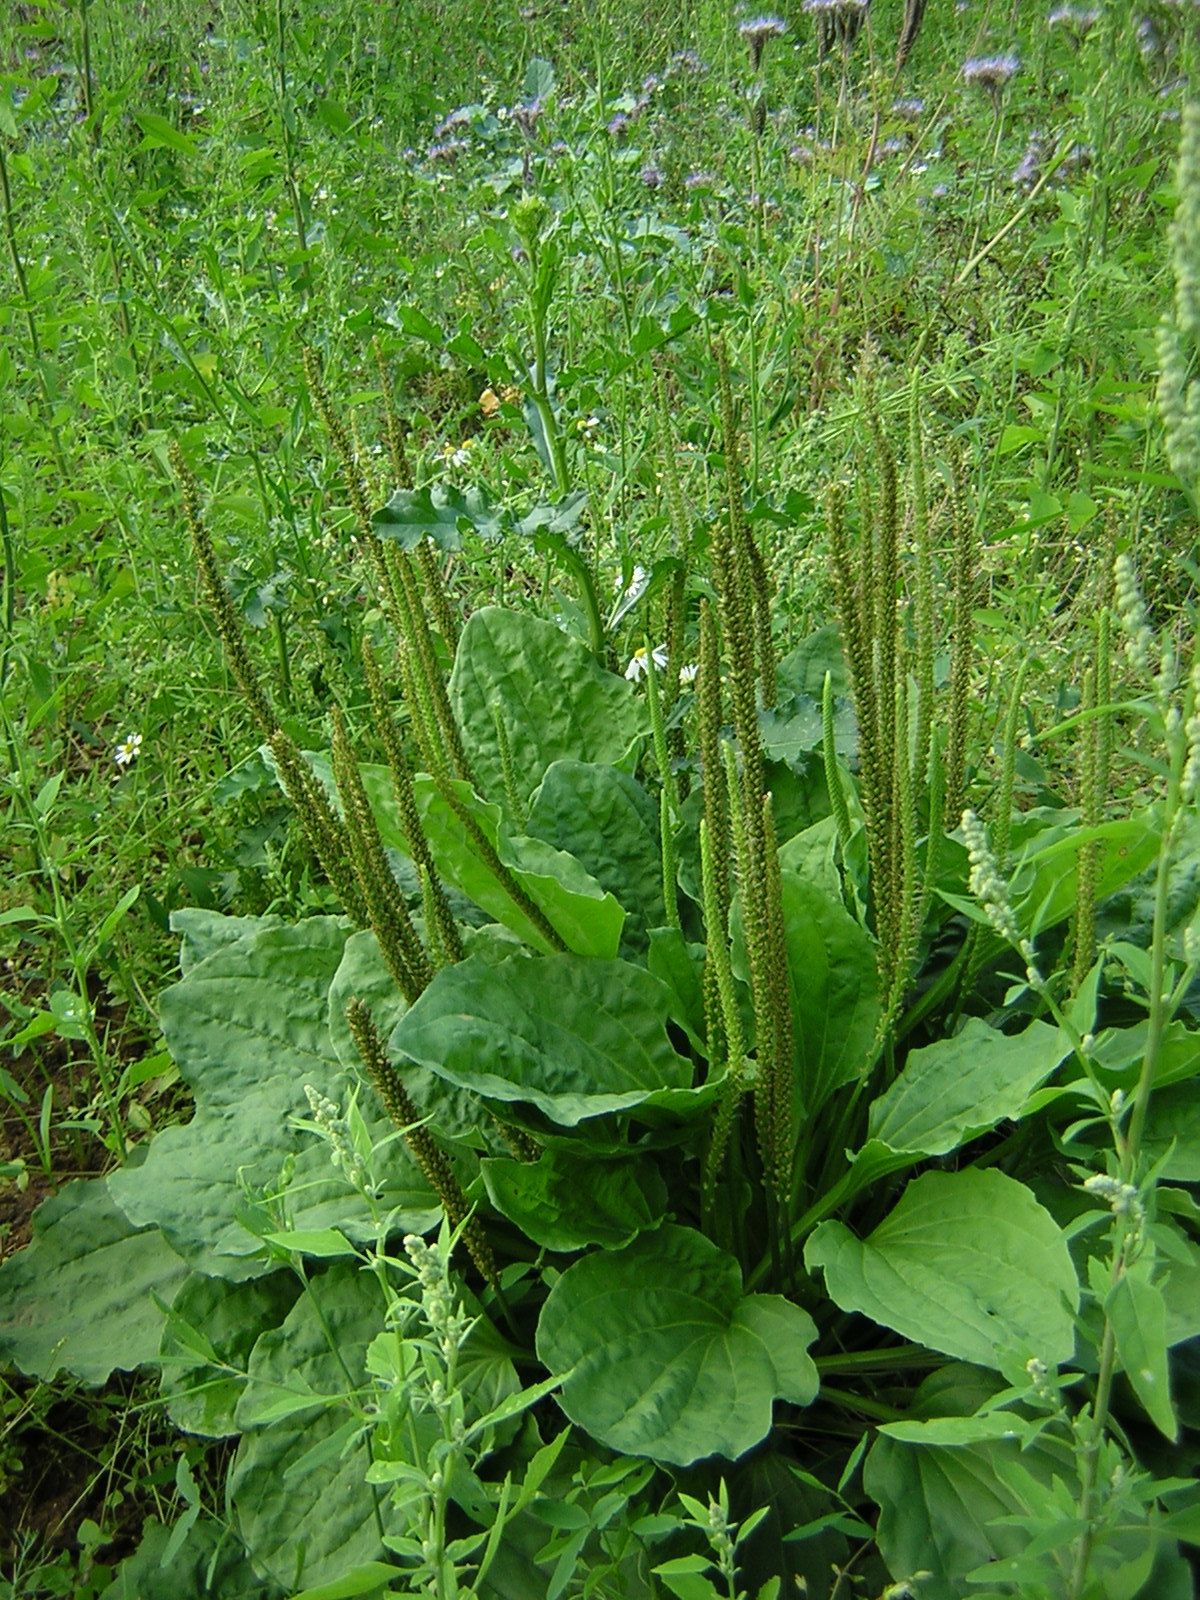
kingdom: Plantae
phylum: Tracheophyta
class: Magnoliopsida
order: Lamiales
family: Plantaginaceae
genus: Plantago
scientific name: Plantago major
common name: Common plantain
